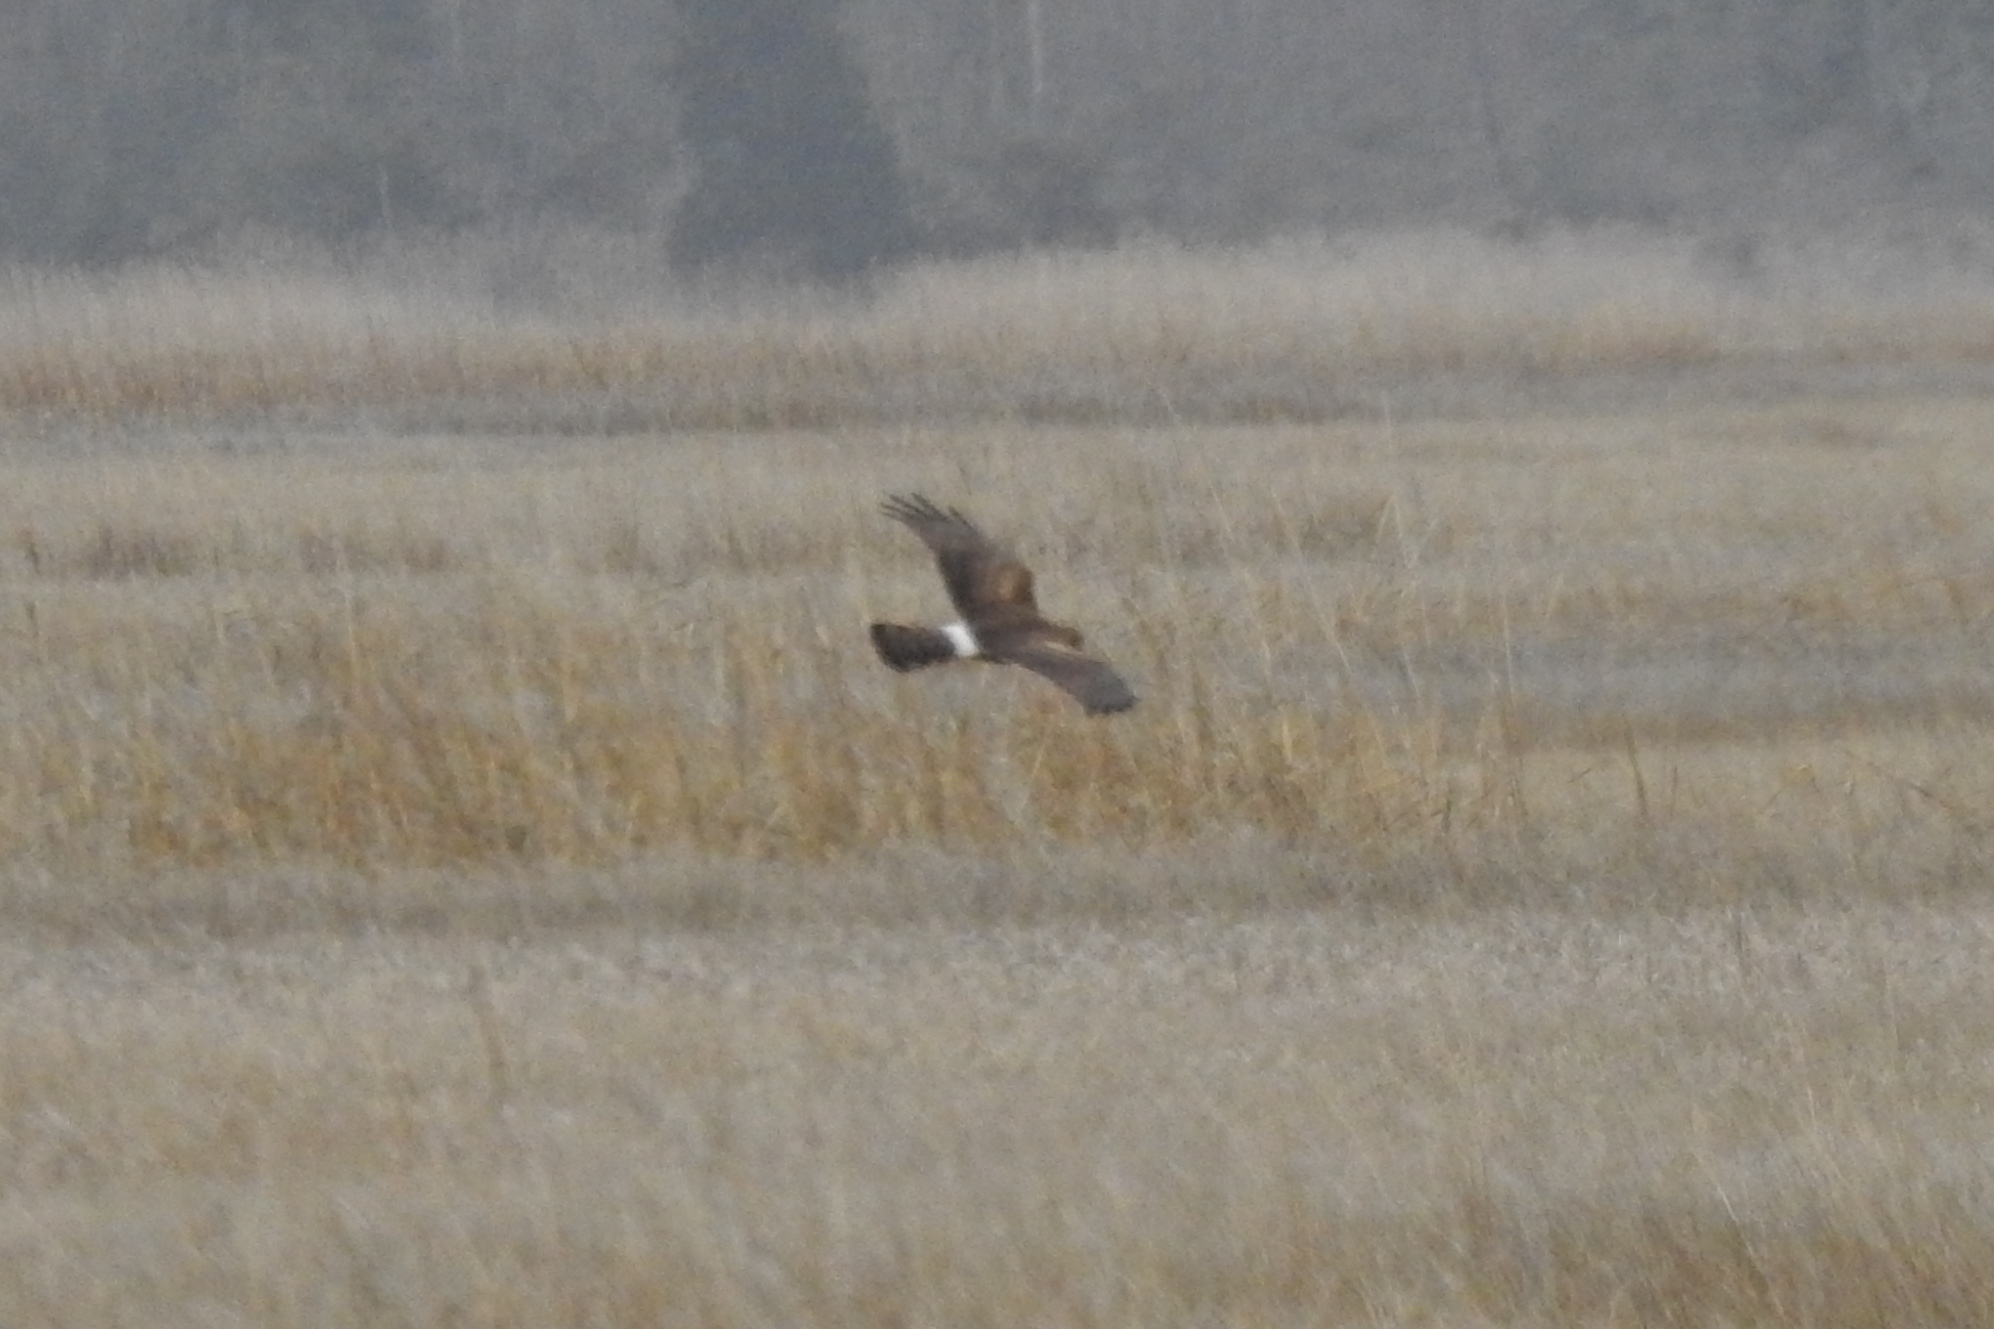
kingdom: Animalia
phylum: Chordata
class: Aves
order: Accipitriformes
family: Accipitridae
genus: Circus
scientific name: Circus cyaneus
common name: Hen harrier
